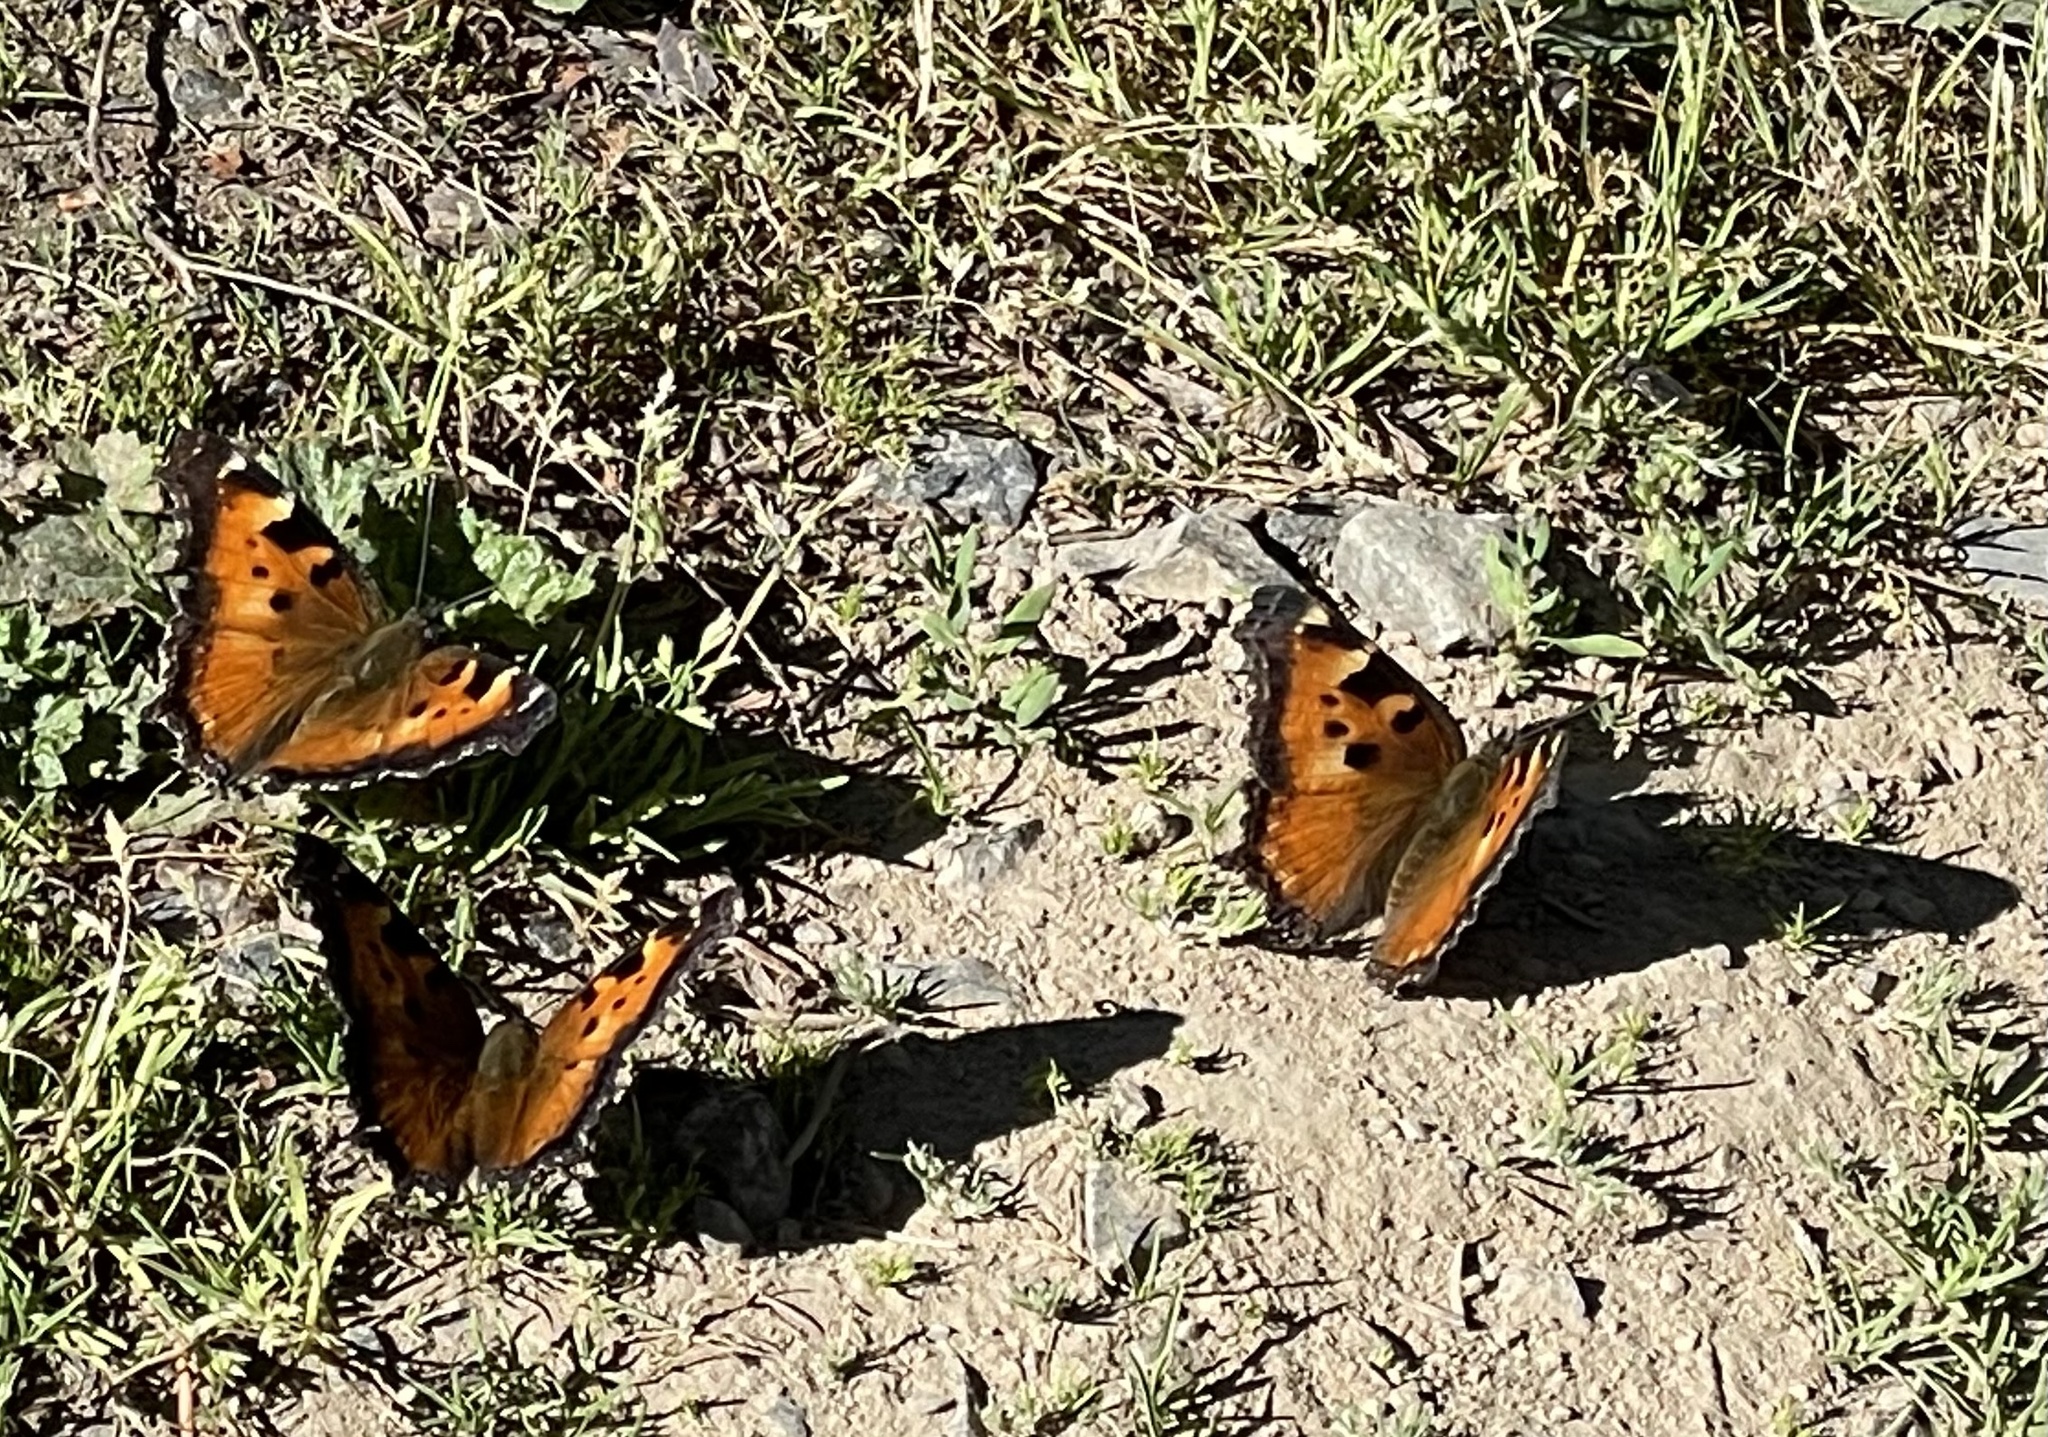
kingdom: Animalia
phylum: Arthropoda
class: Insecta
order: Lepidoptera
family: Nymphalidae
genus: Nymphalis
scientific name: Nymphalis californica
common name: California tortoiseshell
